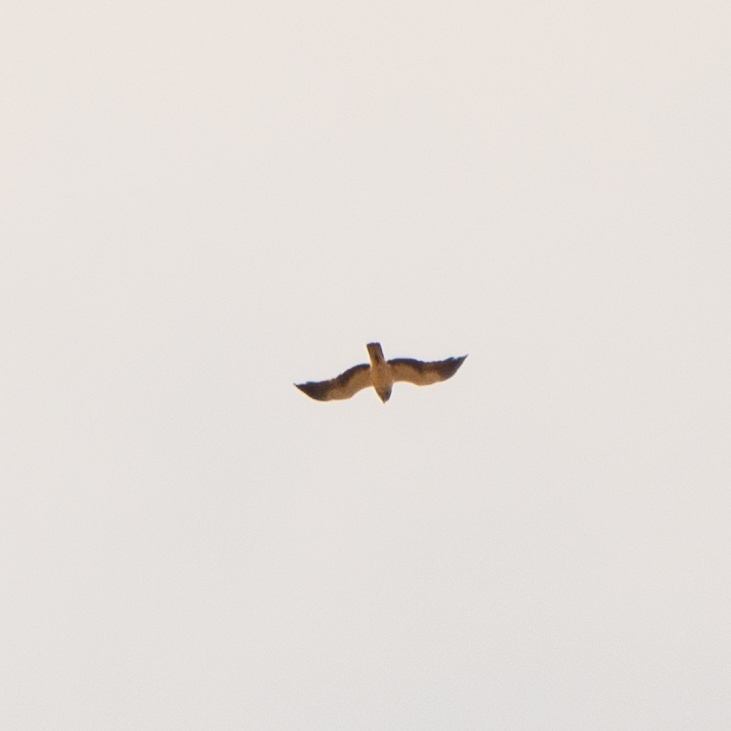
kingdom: Animalia
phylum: Chordata
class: Aves
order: Accipitriformes
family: Accipitridae
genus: Hieraaetus
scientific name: Hieraaetus pennatus
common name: Booted eagle
